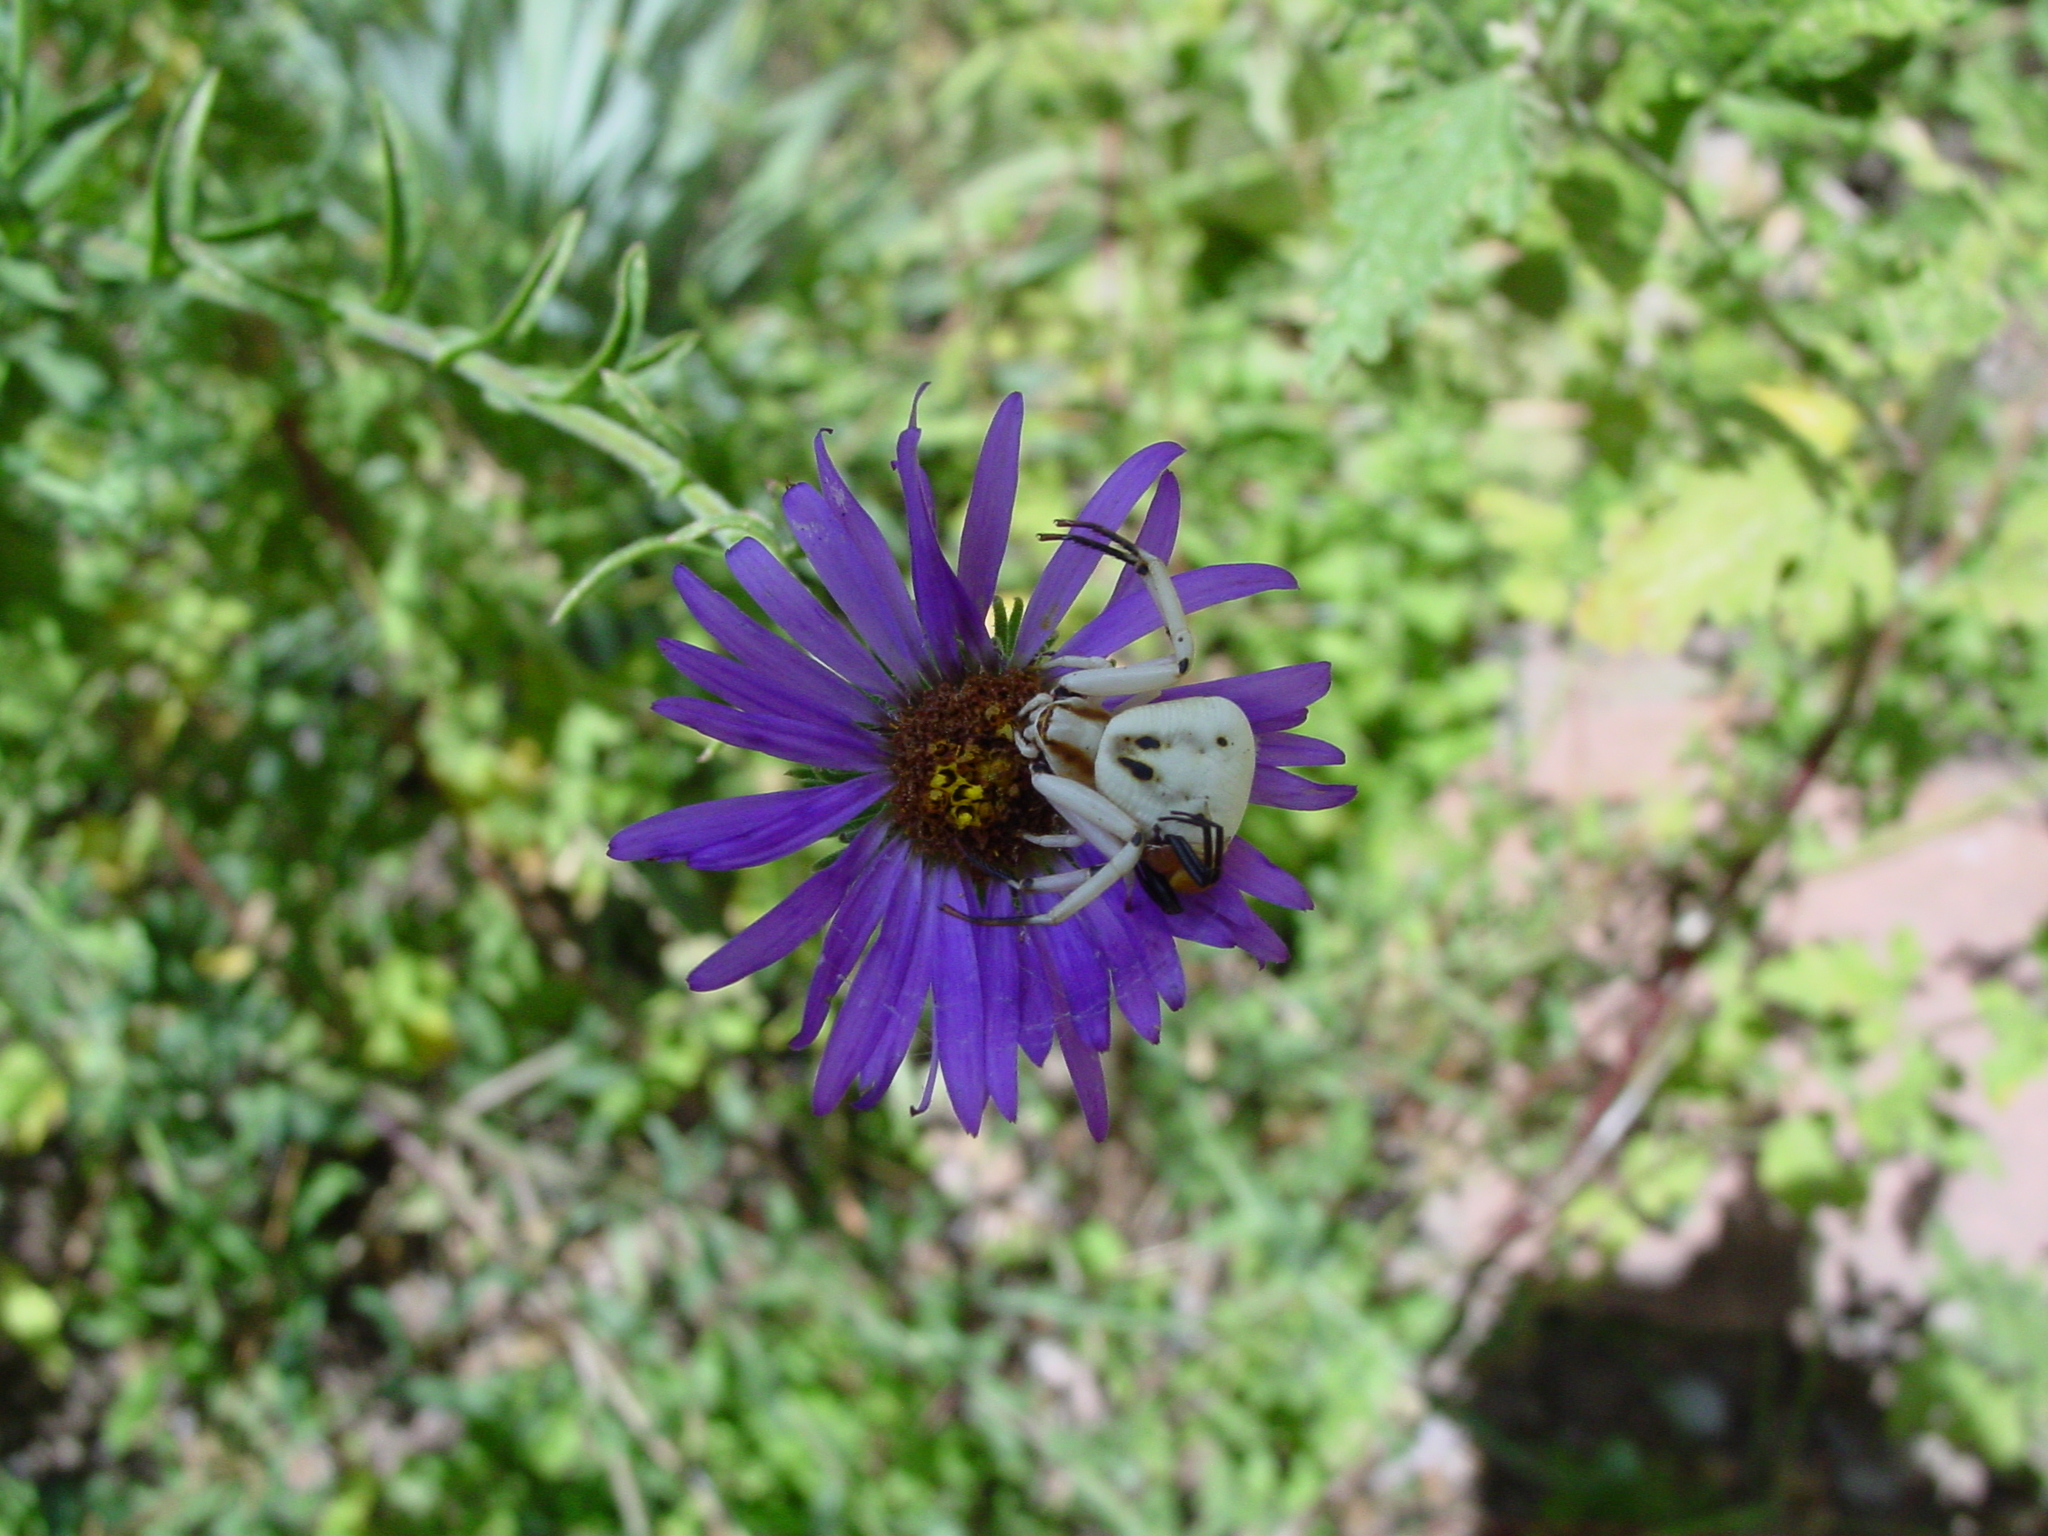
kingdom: Animalia
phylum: Arthropoda
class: Arachnida
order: Araneae
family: Thomisidae
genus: Misumenoides
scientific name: Misumenoides formosipes
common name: White-banded crab spider
